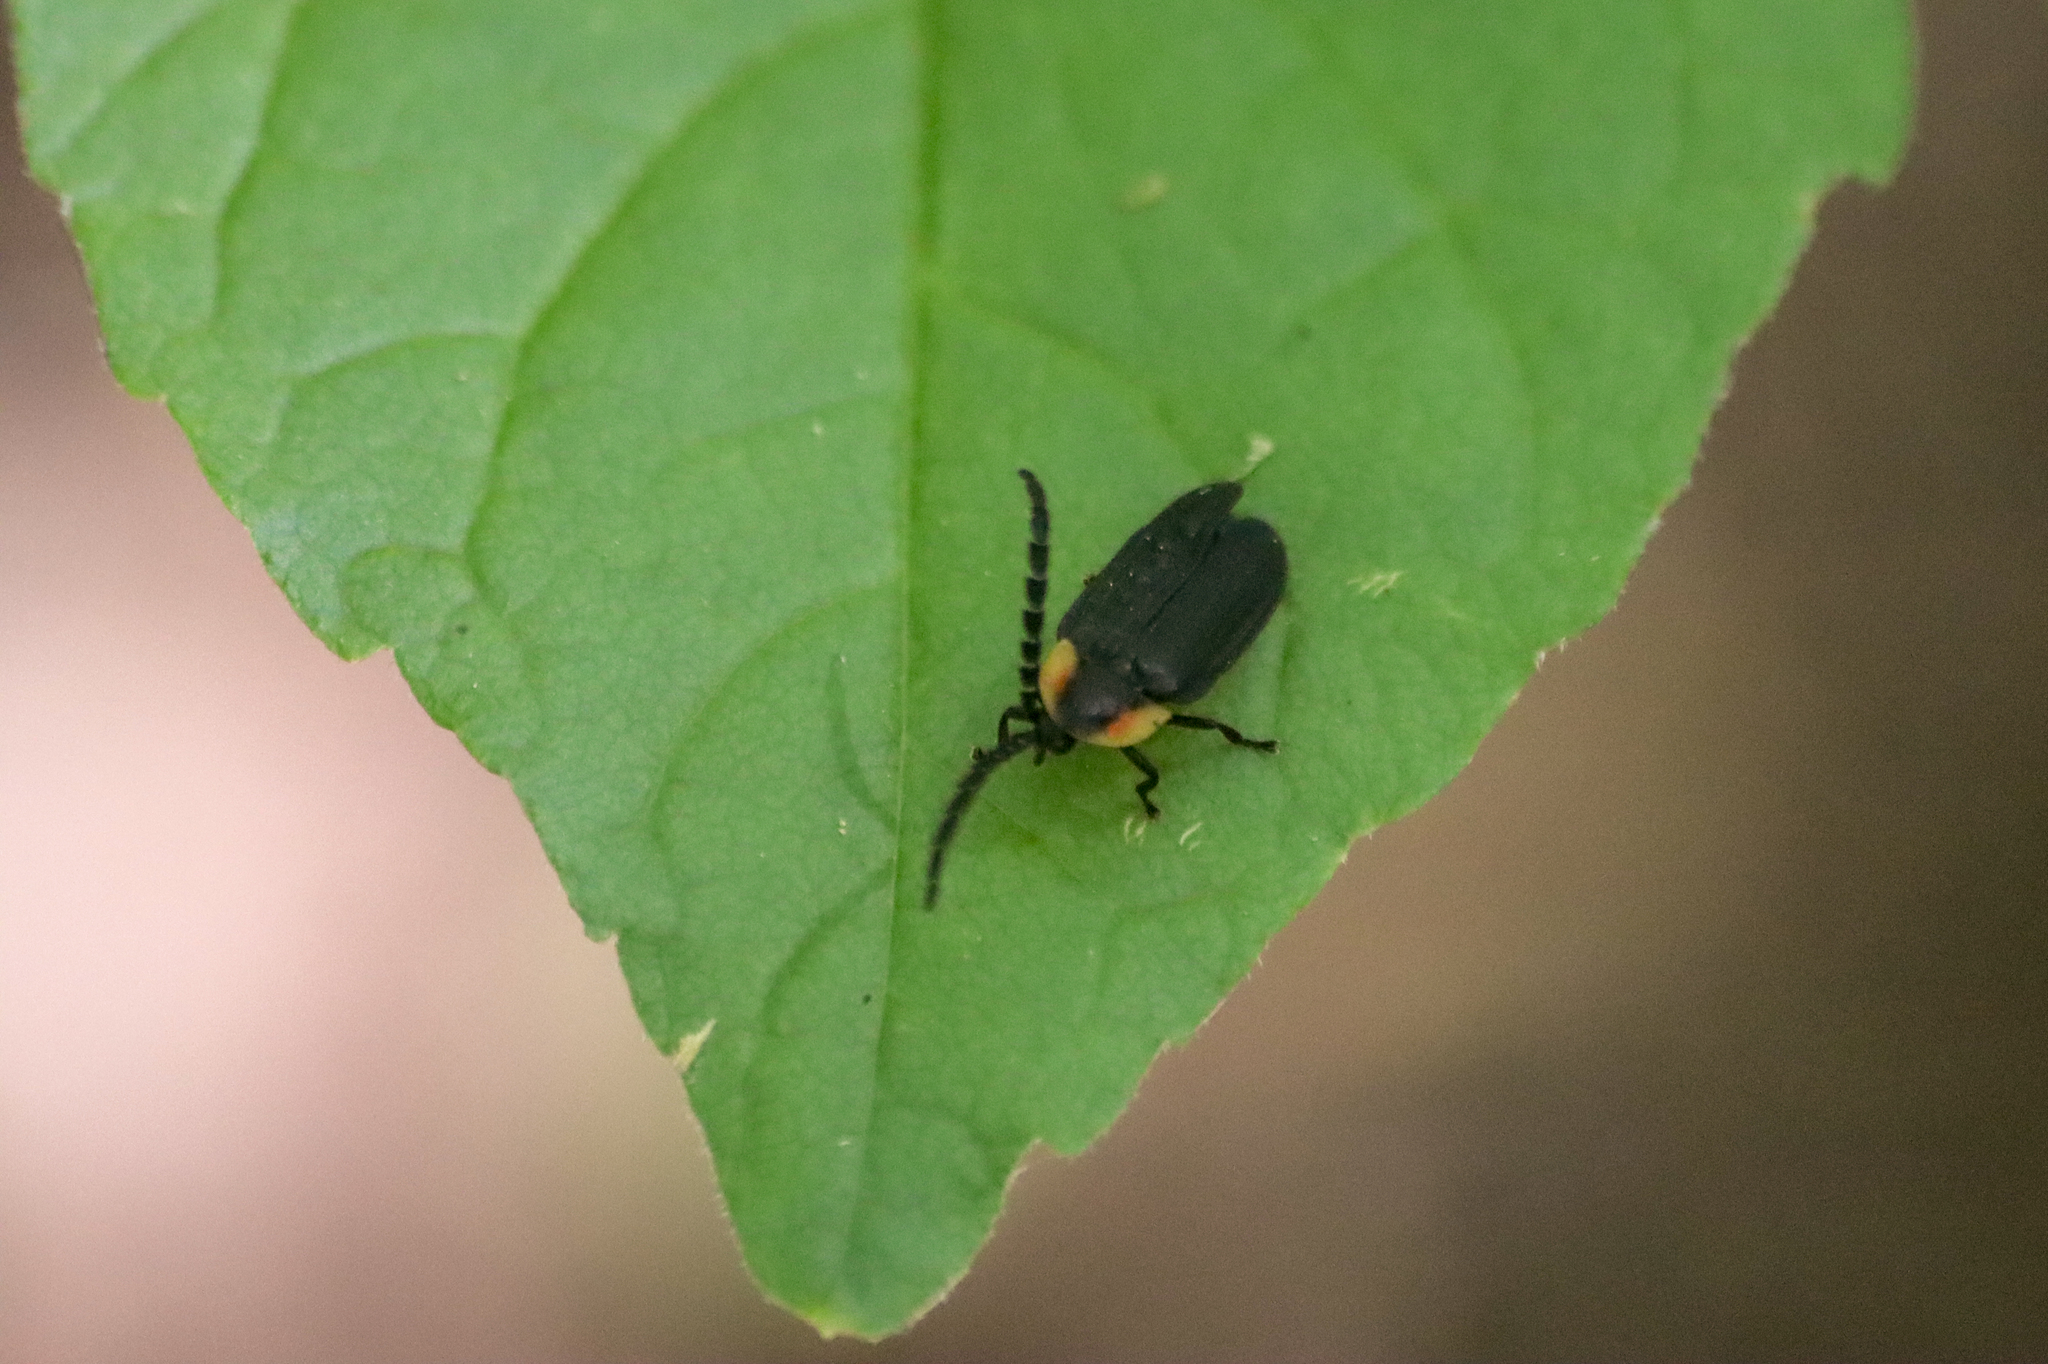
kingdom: Animalia
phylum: Arthropoda
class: Insecta
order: Coleoptera
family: Lampyridae
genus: Lucidota
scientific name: Lucidota atra
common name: Black firefly
